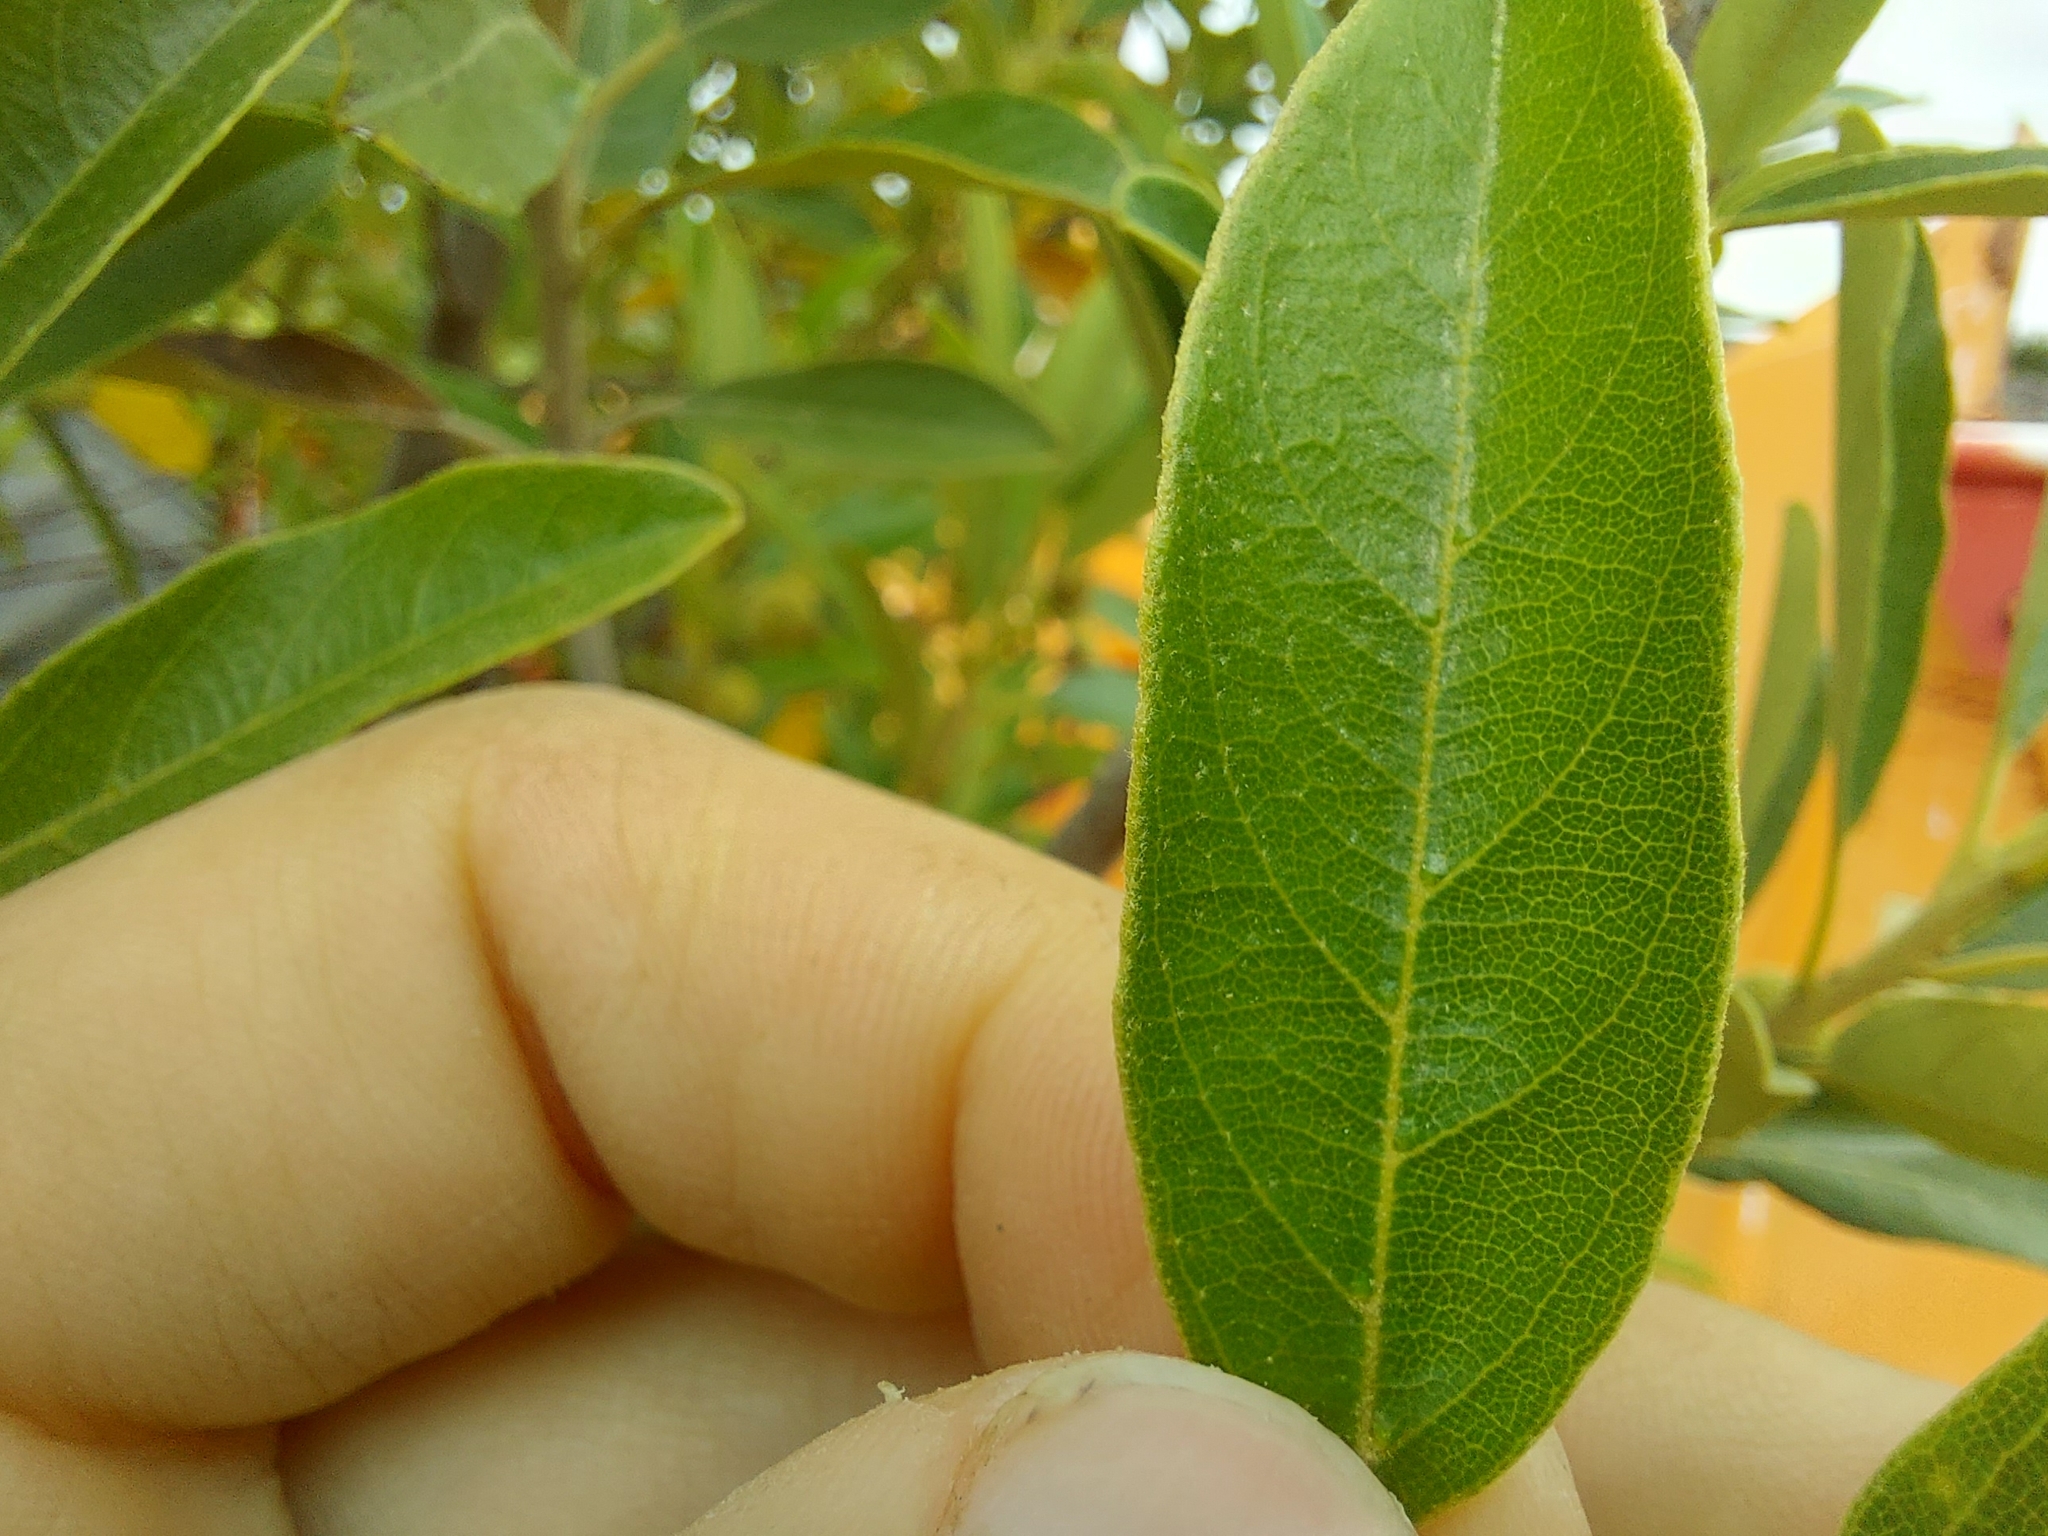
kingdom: Plantae
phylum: Tracheophyta
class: Magnoliopsida
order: Malpighiales
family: Achariaceae
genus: Kiggelaria
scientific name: Kiggelaria africana
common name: Wild peach
